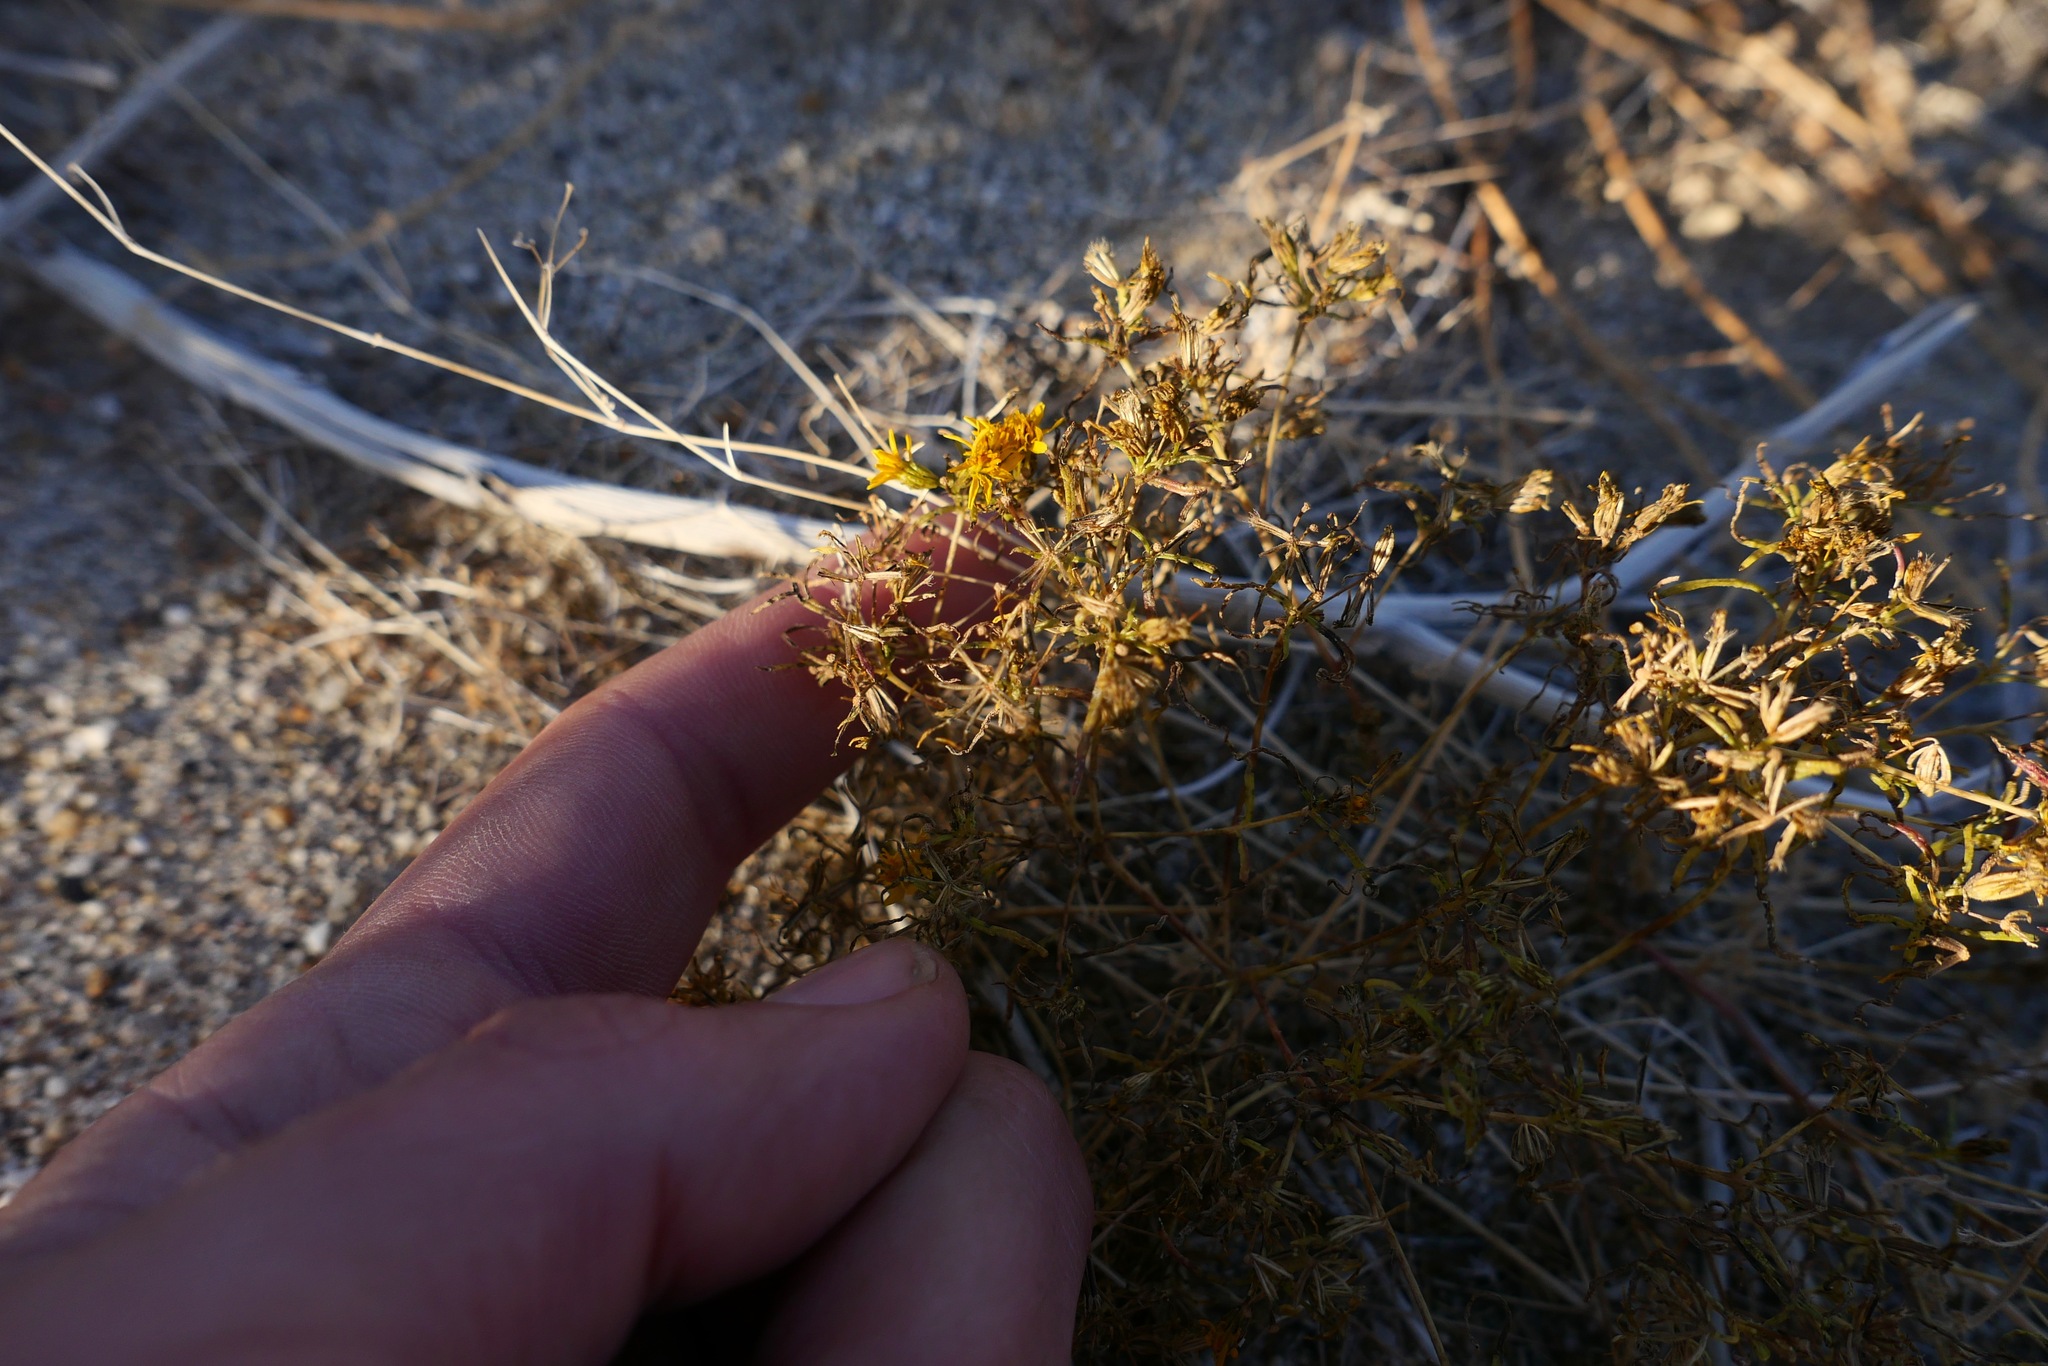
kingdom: Plantae
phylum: Tracheophyta
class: Magnoliopsida
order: Asterales
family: Asteraceae
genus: Pectis
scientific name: Pectis papposa
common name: Many-bristle chinchweed
